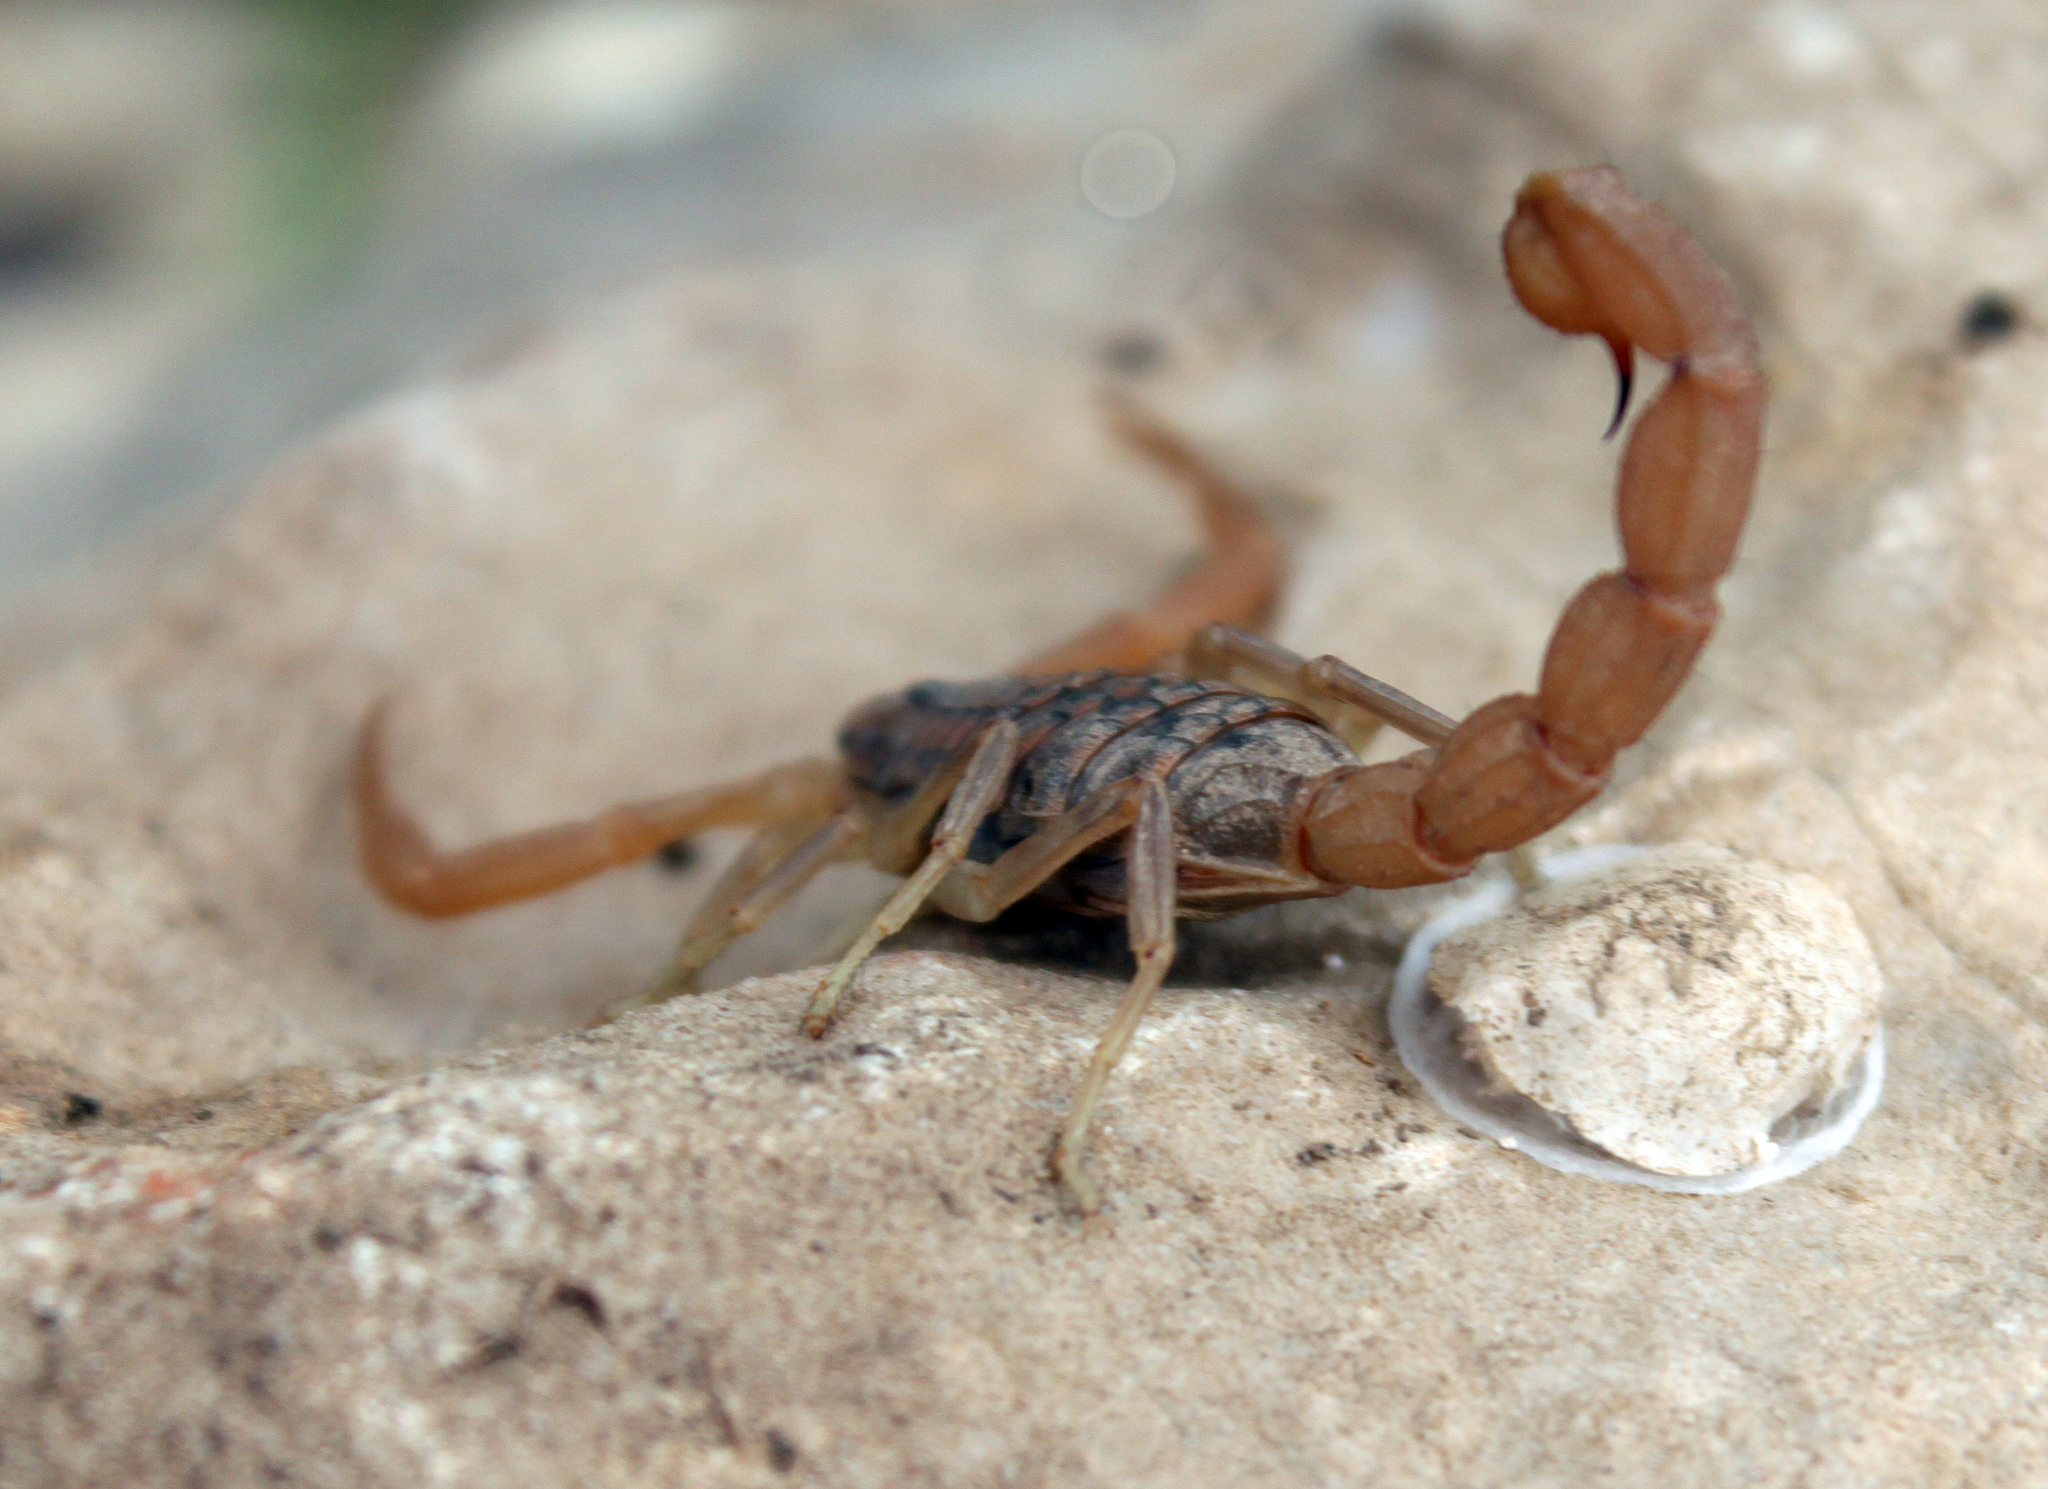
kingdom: Animalia
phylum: Arthropoda
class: Arachnida
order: Scorpiones
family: Buthidae
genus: Aegaeobuthus
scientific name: Aegaeobuthus gibbosus
